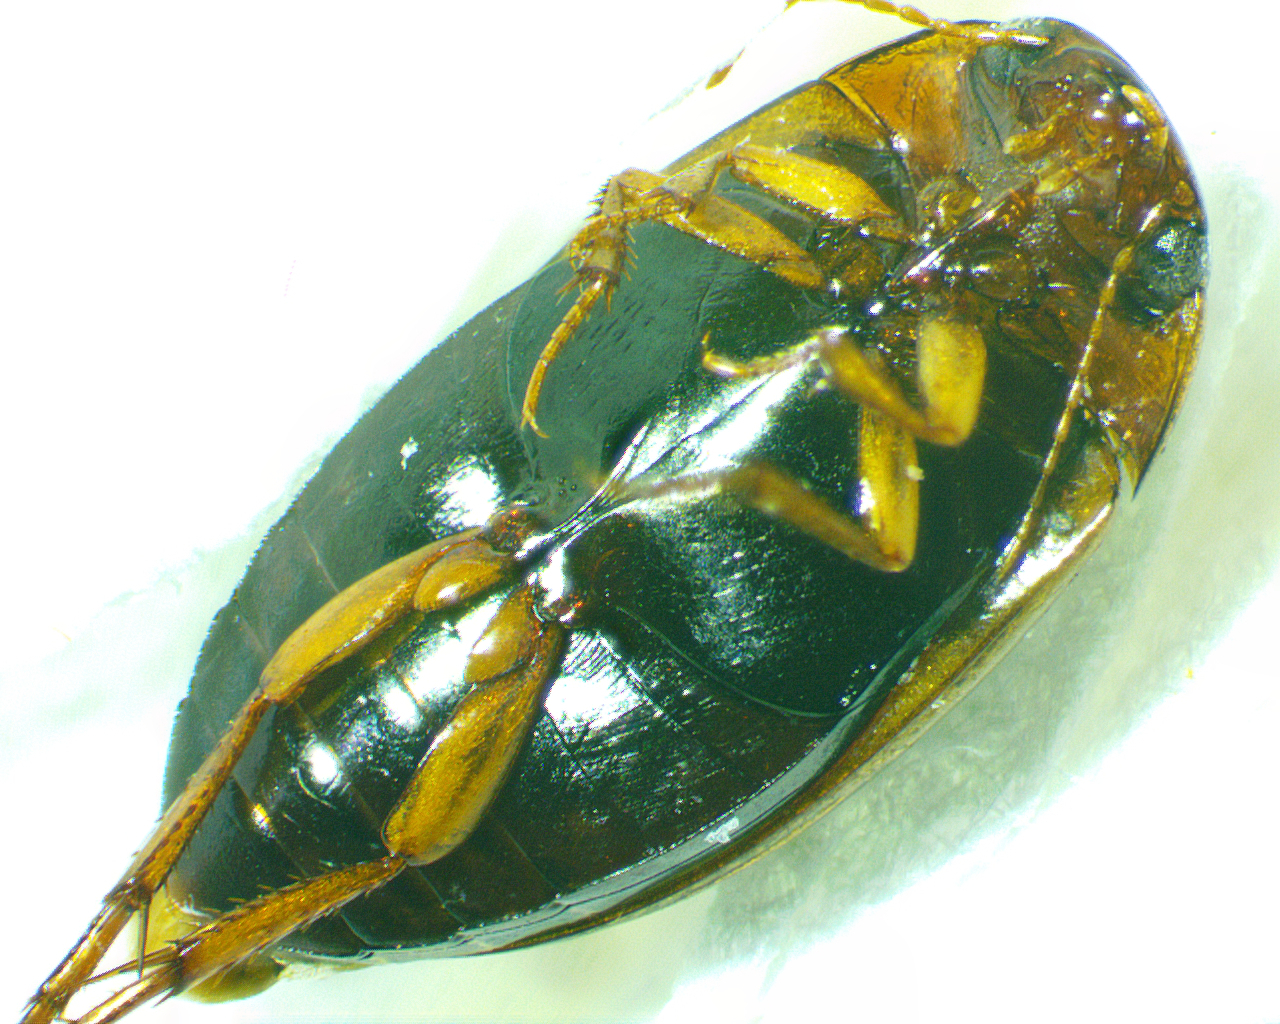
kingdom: Animalia
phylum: Arthropoda
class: Insecta
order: Coleoptera
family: Dytiscidae
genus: Copelatus
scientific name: Copelatus glyphicus
